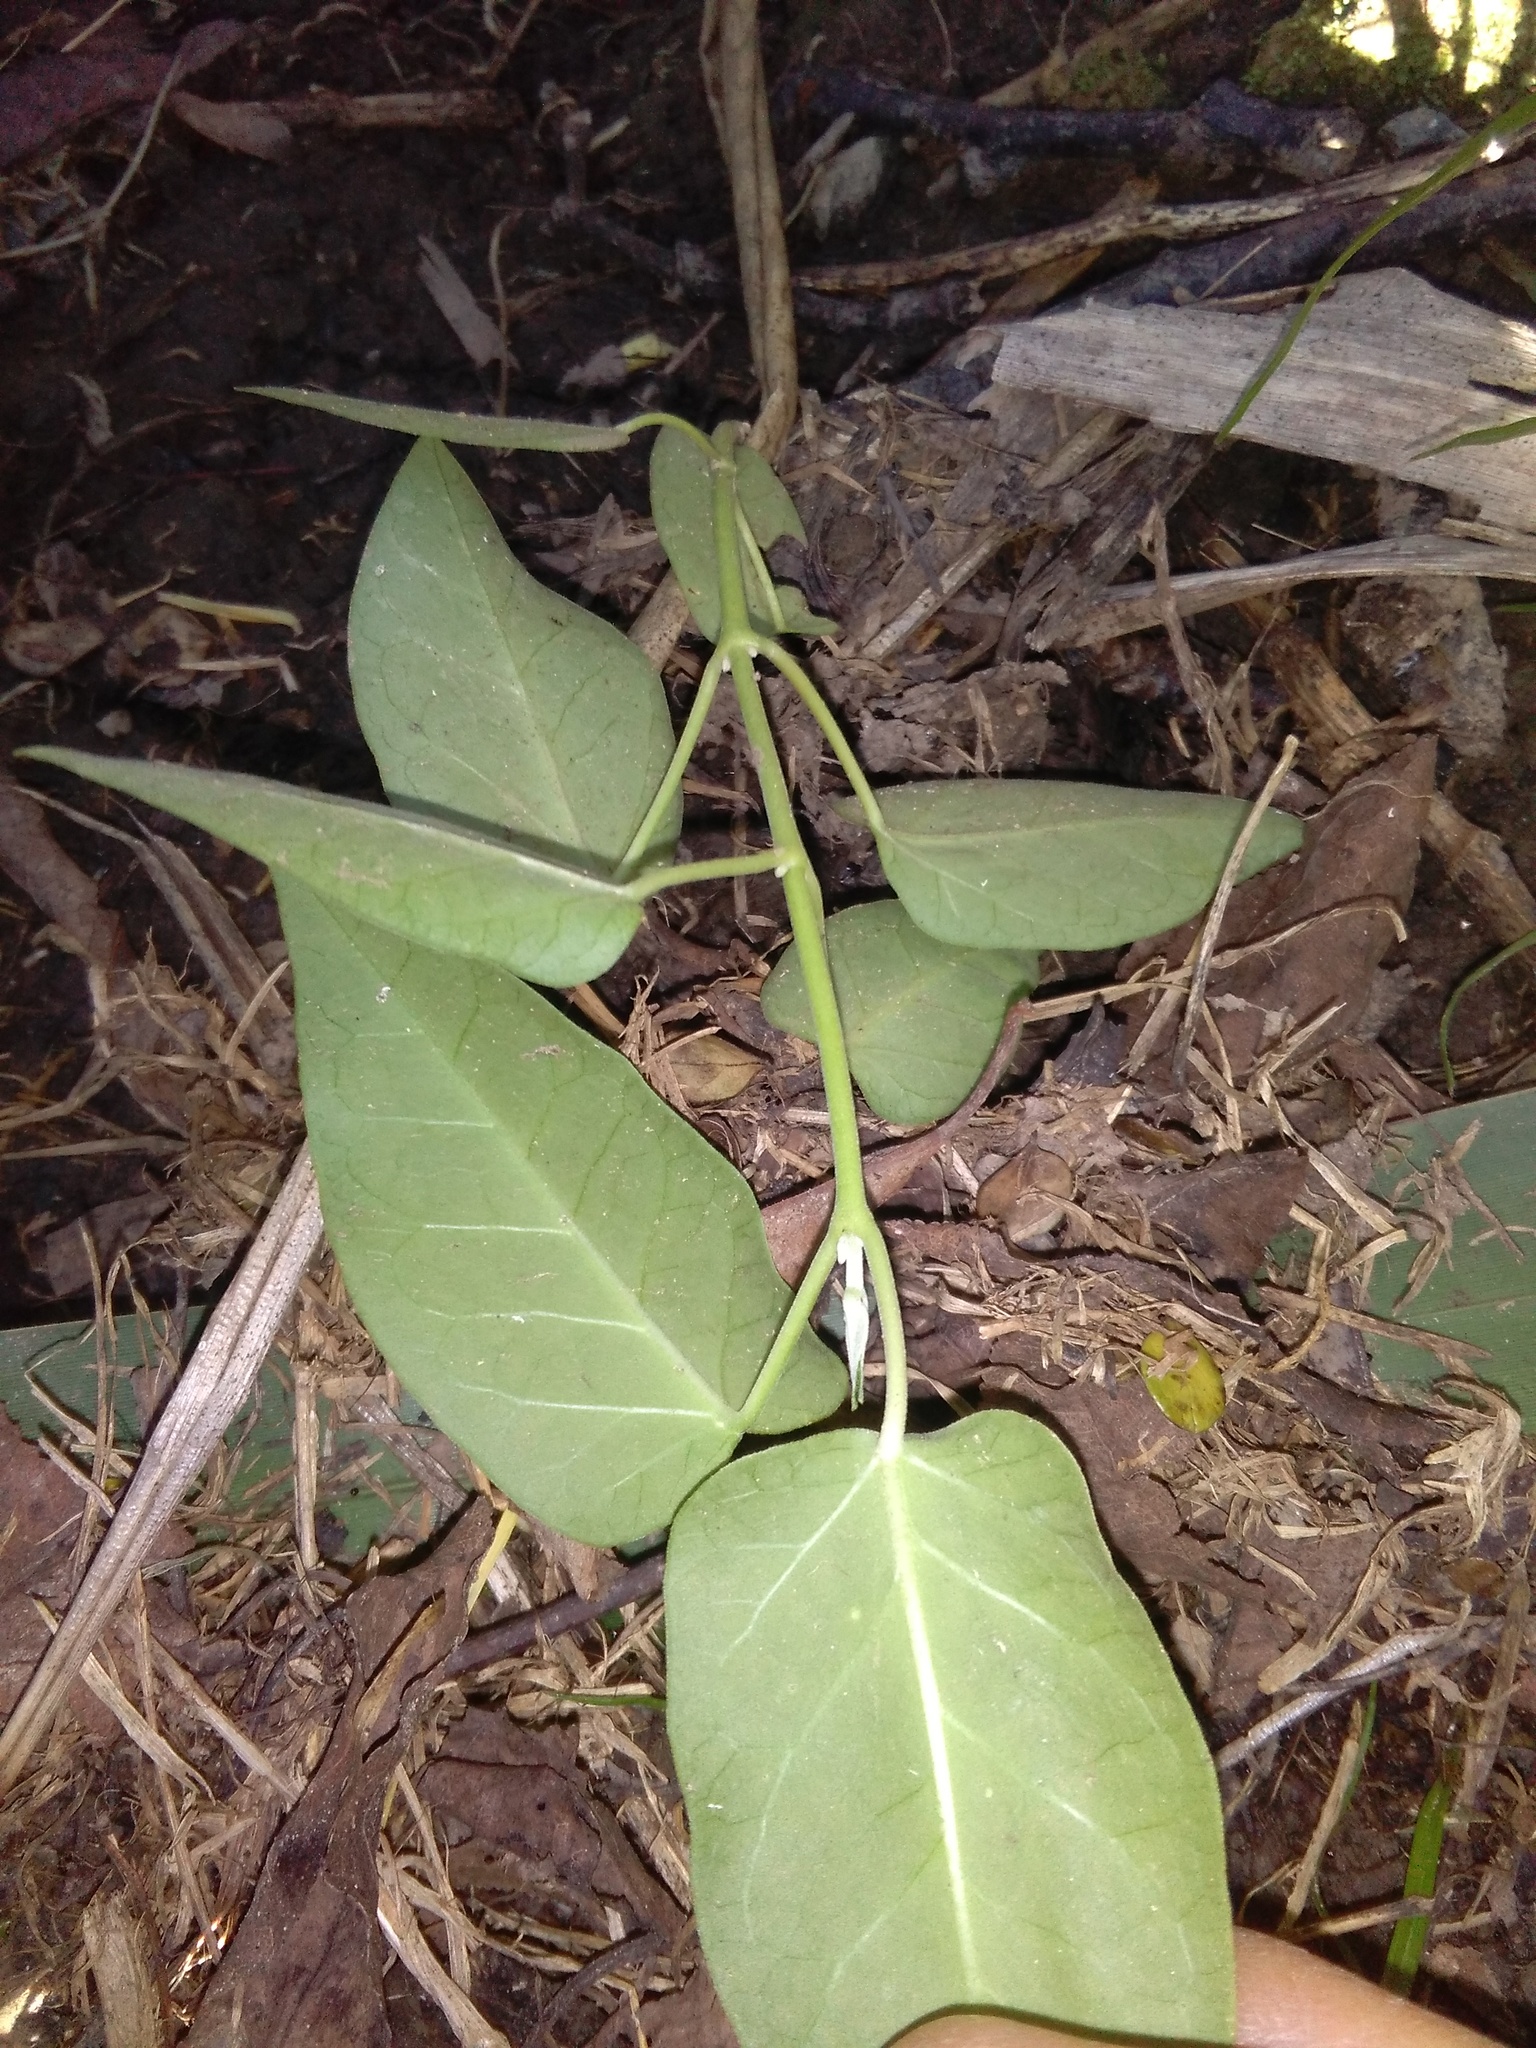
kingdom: Plantae
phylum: Tracheophyta
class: Magnoliopsida
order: Gentianales
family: Apocynaceae
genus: Araujia
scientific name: Araujia sericifera
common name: White bladderflower
